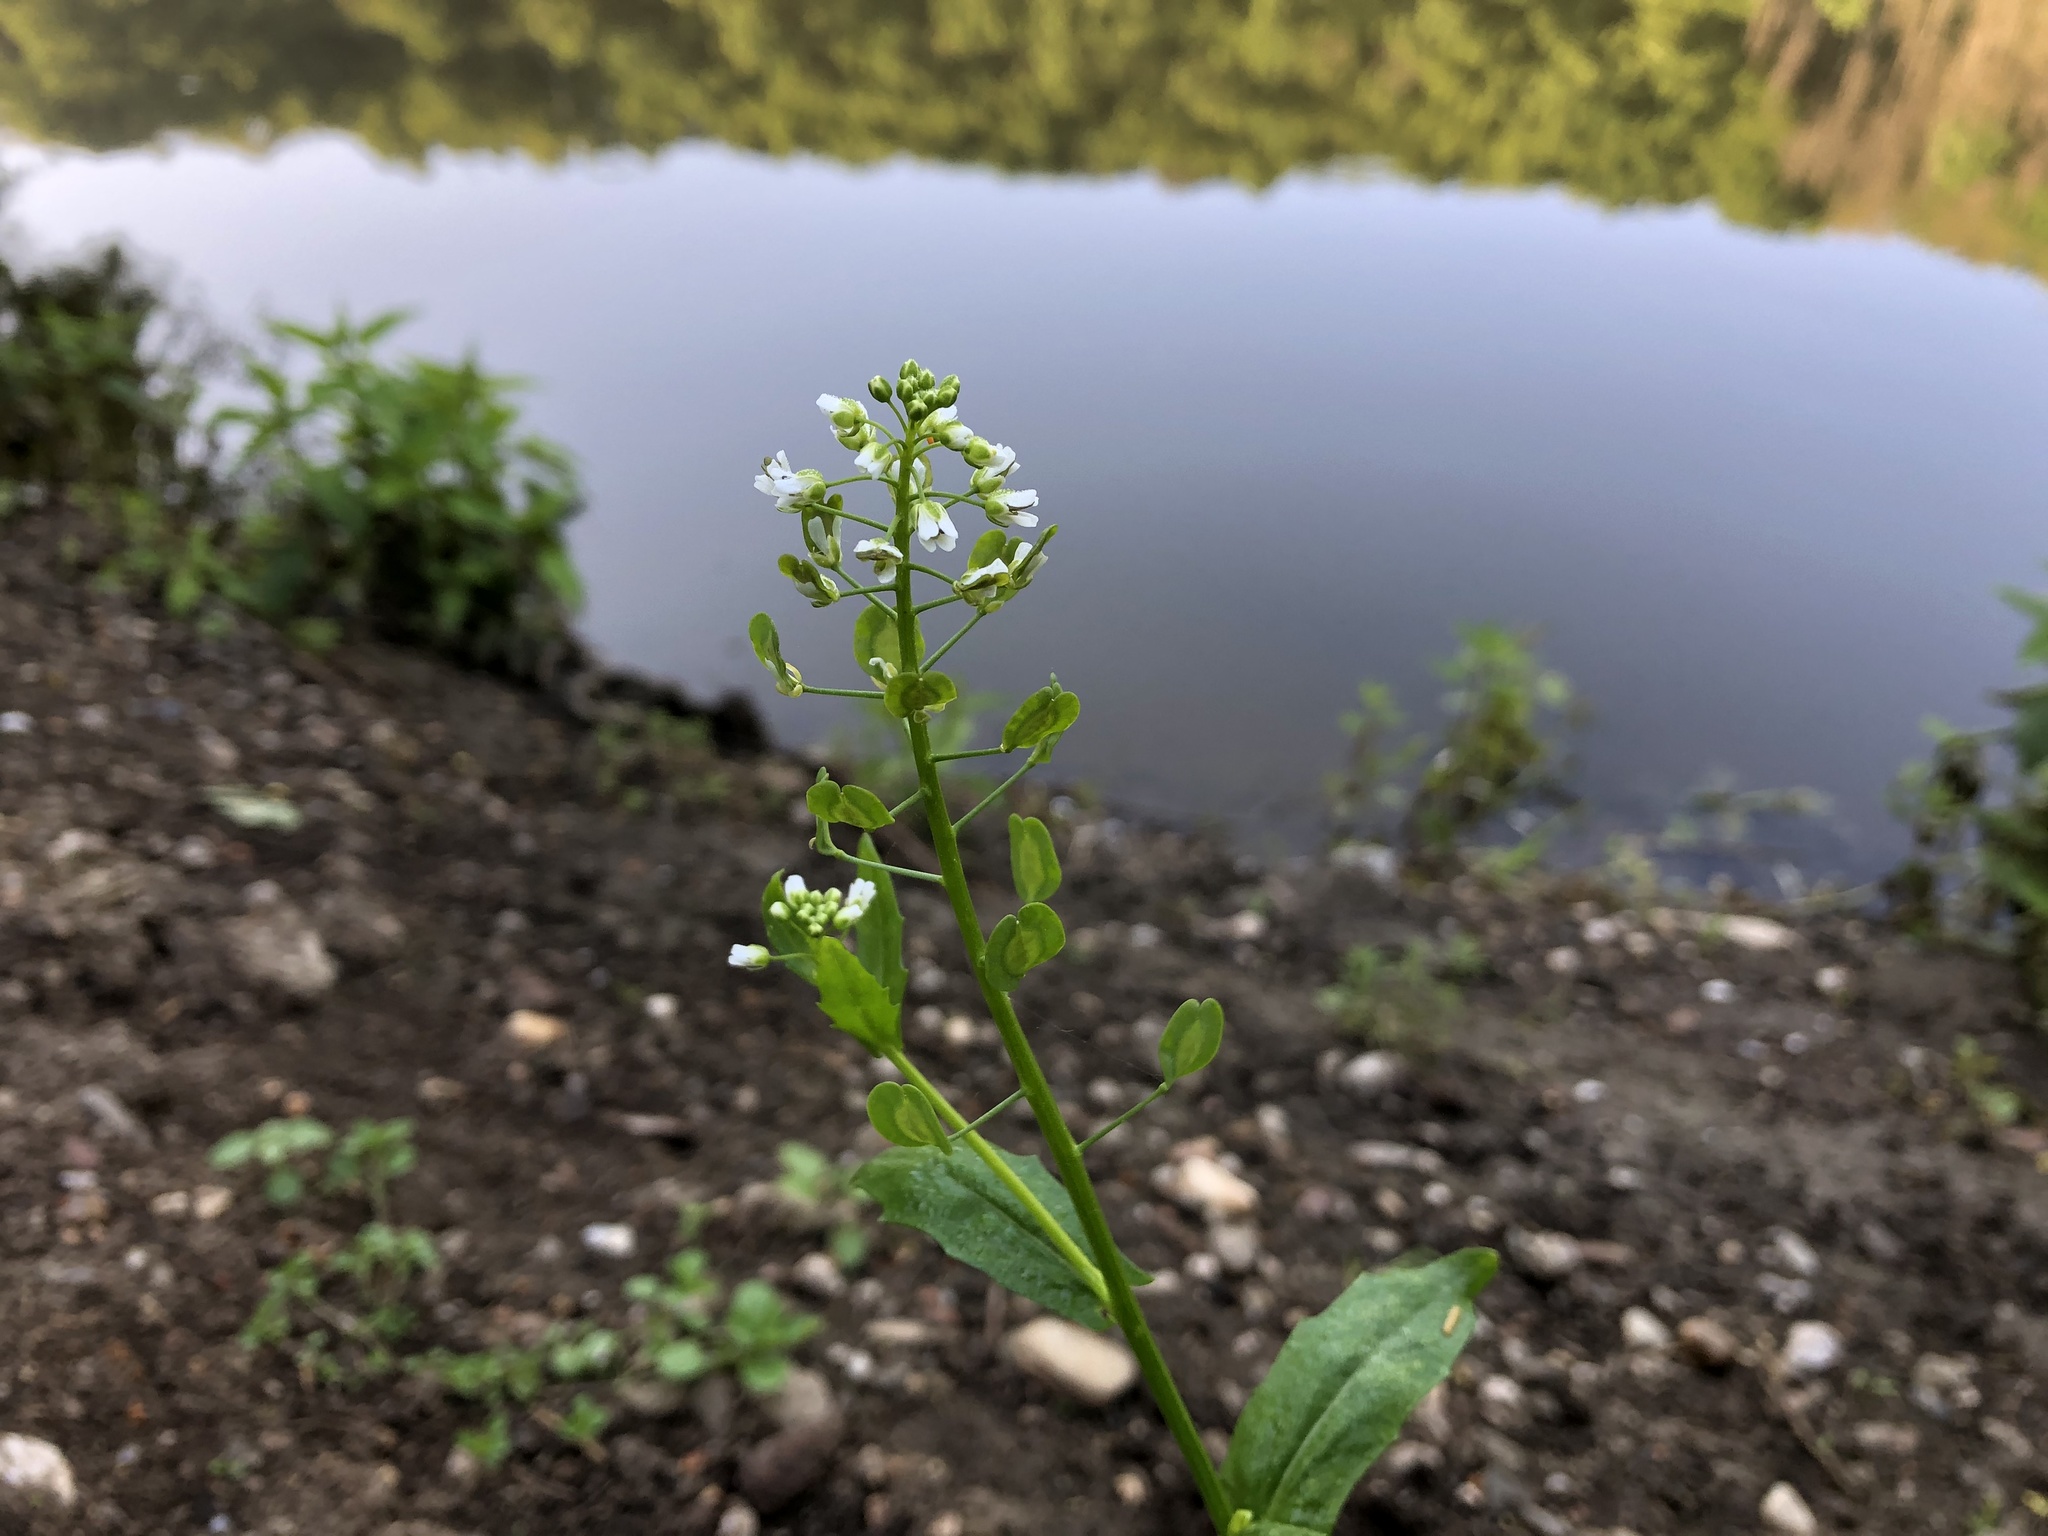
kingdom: Plantae
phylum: Tracheophyta
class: Magnoliopsida
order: Brassicales
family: Brassicaceae
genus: Thlaspi
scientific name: Thlaspi arvense
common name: Field pennycress
